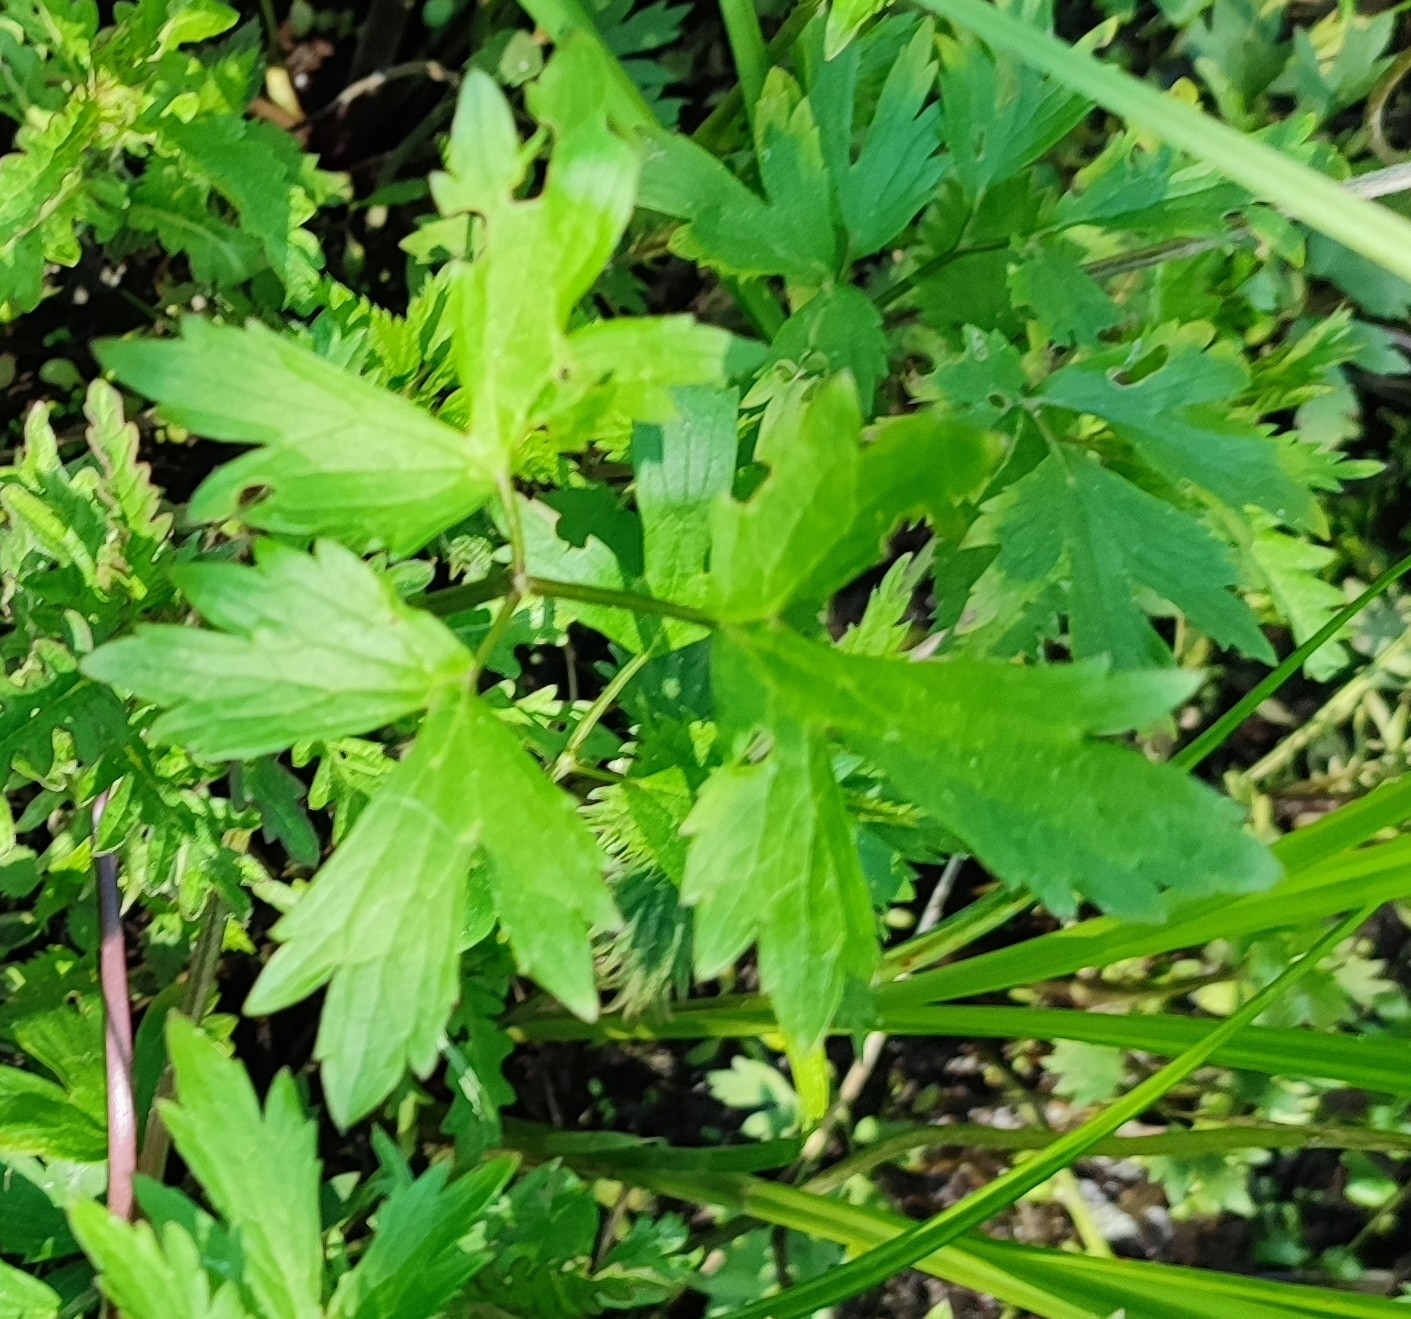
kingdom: Plantae
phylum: Tracheophyta
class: Magnoliopsida
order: Ranunculales
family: Ranunculaceae
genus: Ranunculus
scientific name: Ranunculus repens
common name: Creeping buttercup
